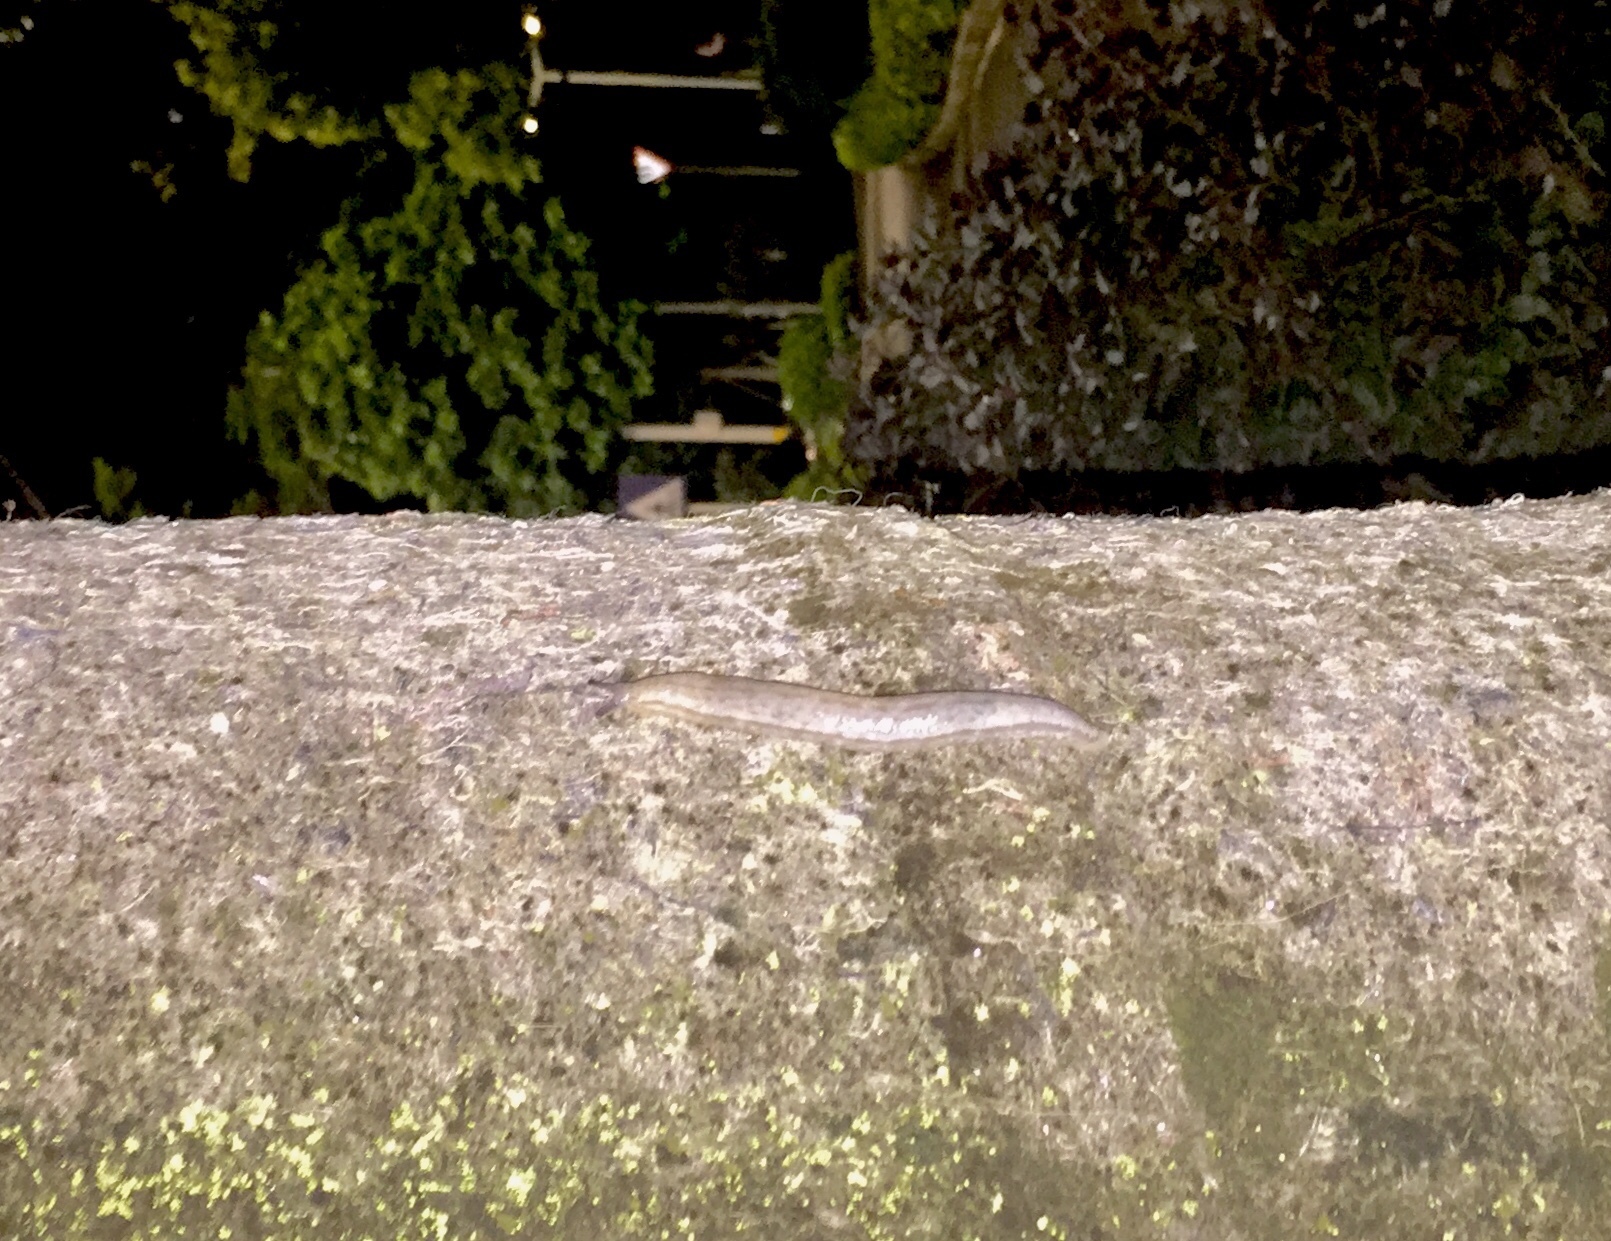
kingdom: Animalia
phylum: Mollusca
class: Gastropoda
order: Stylommatophora
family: Philomycidae
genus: Meghimatium
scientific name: Meghimatium bilineatum
